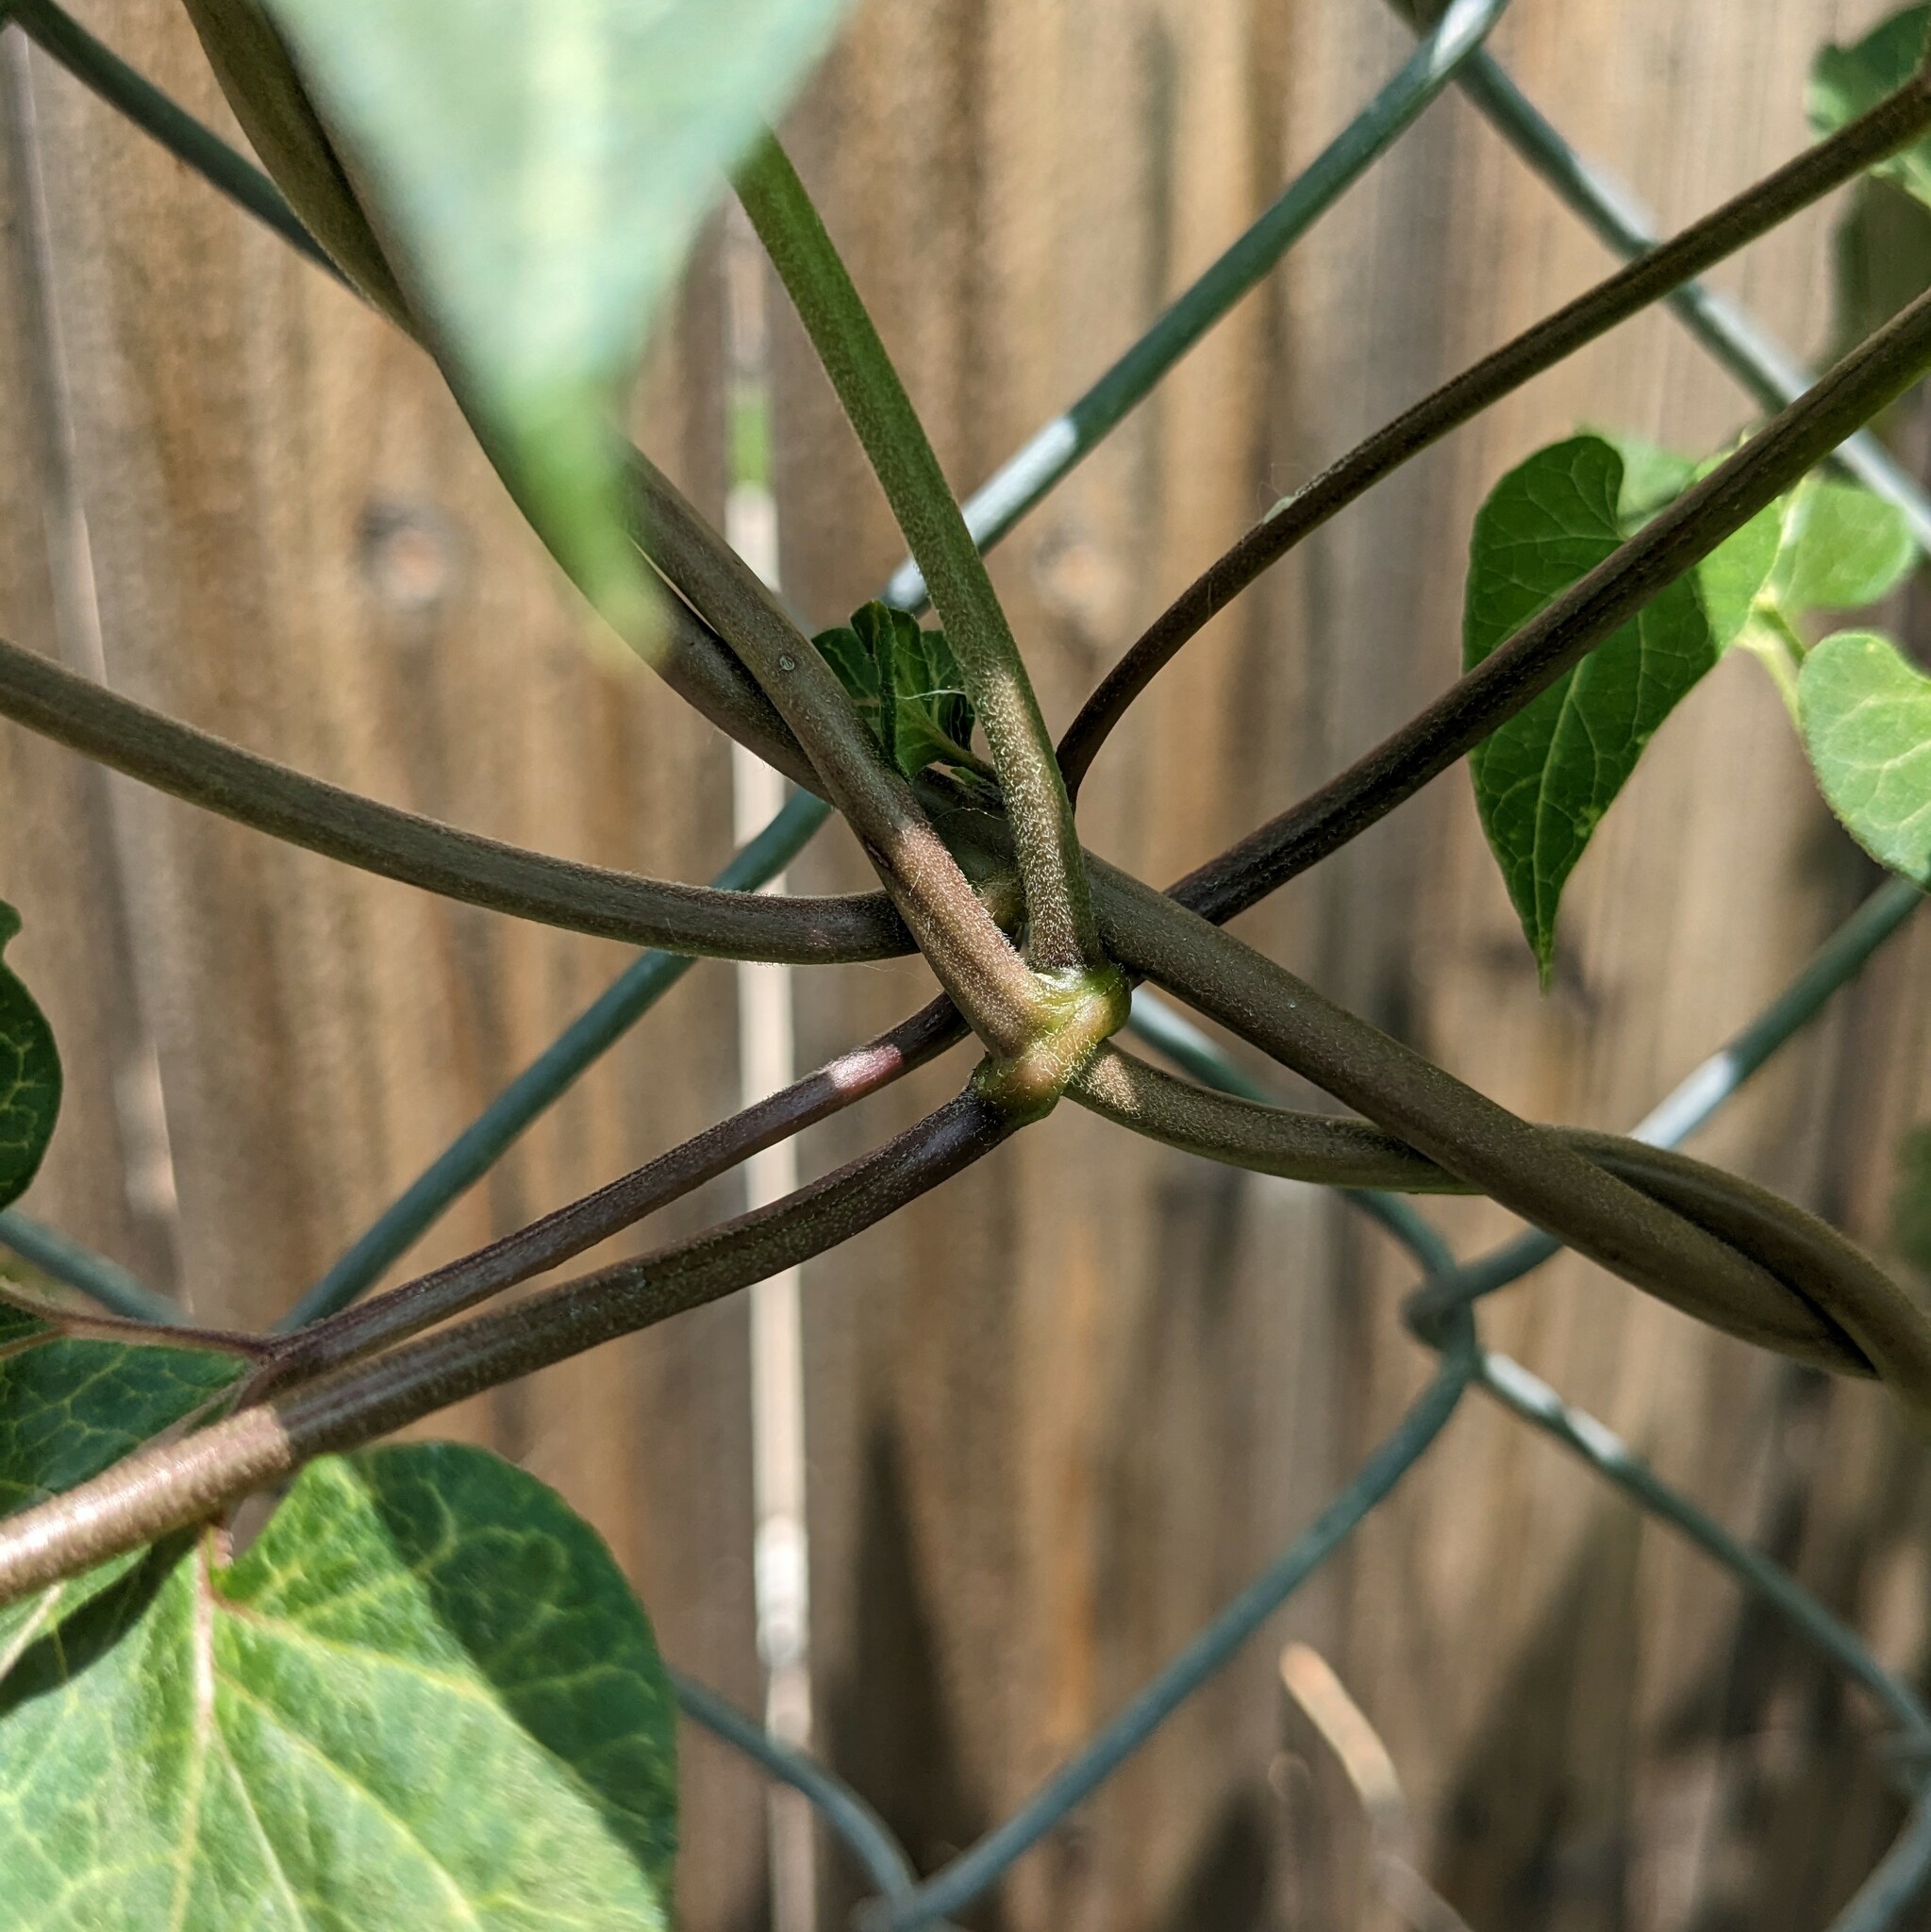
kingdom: Plantae
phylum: Tracheophyta
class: Magnoliopsida
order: Gentianales
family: Apocynaceae
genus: Cynanchum
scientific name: Cynanchum laeve
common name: Sandvine
